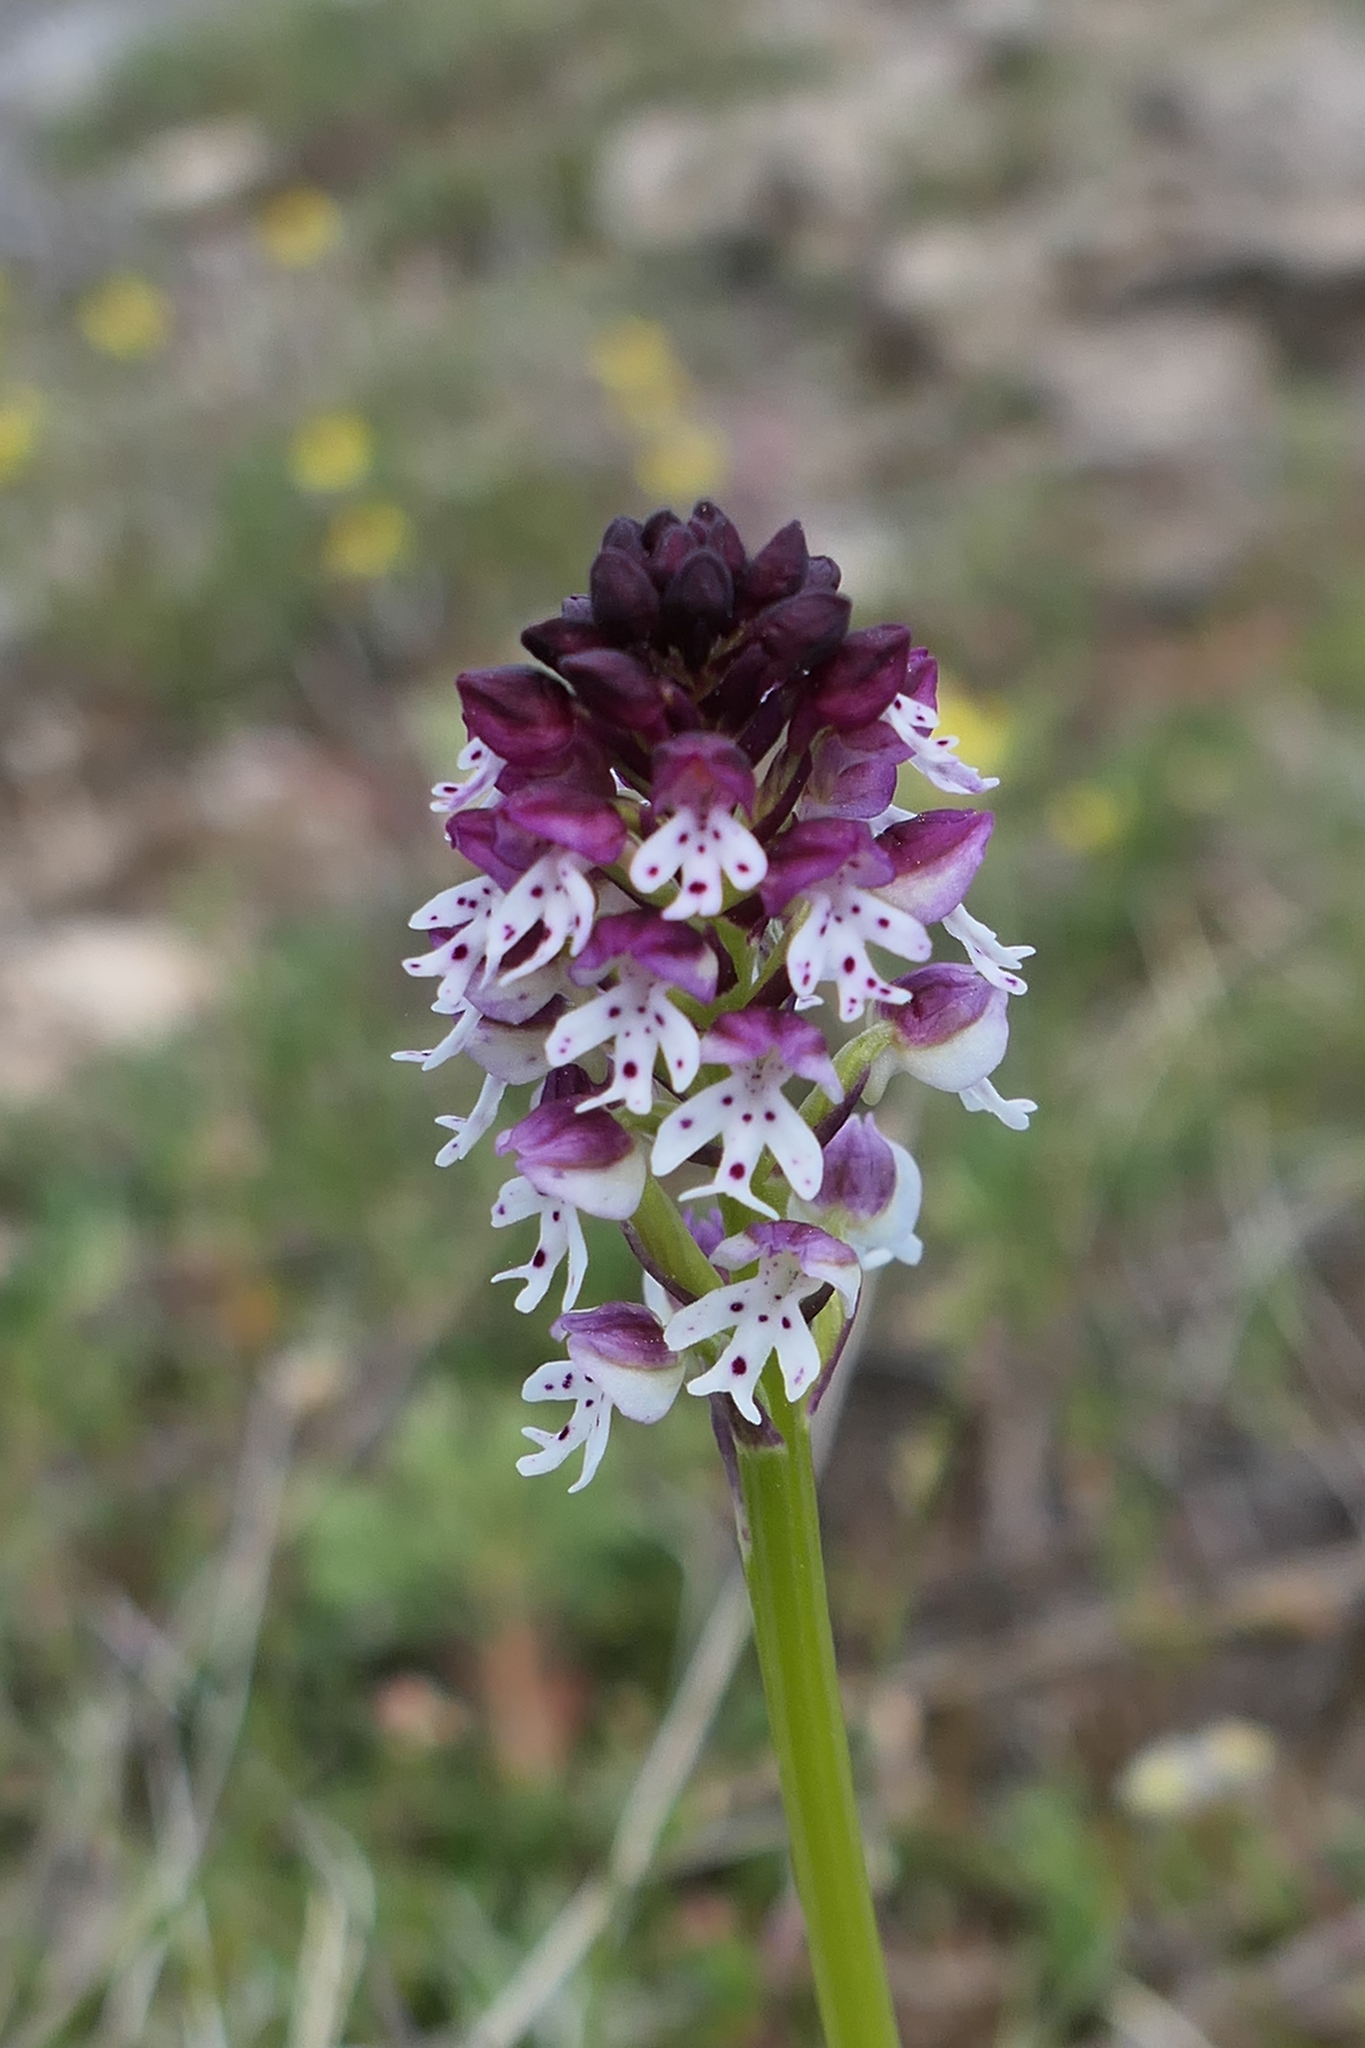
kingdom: Plantae
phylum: Tracheophyta
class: Liliopsida
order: Asparagales
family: Orchidaceae
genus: Neotinea
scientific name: Neotinea ustulata
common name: Burnt orchid
